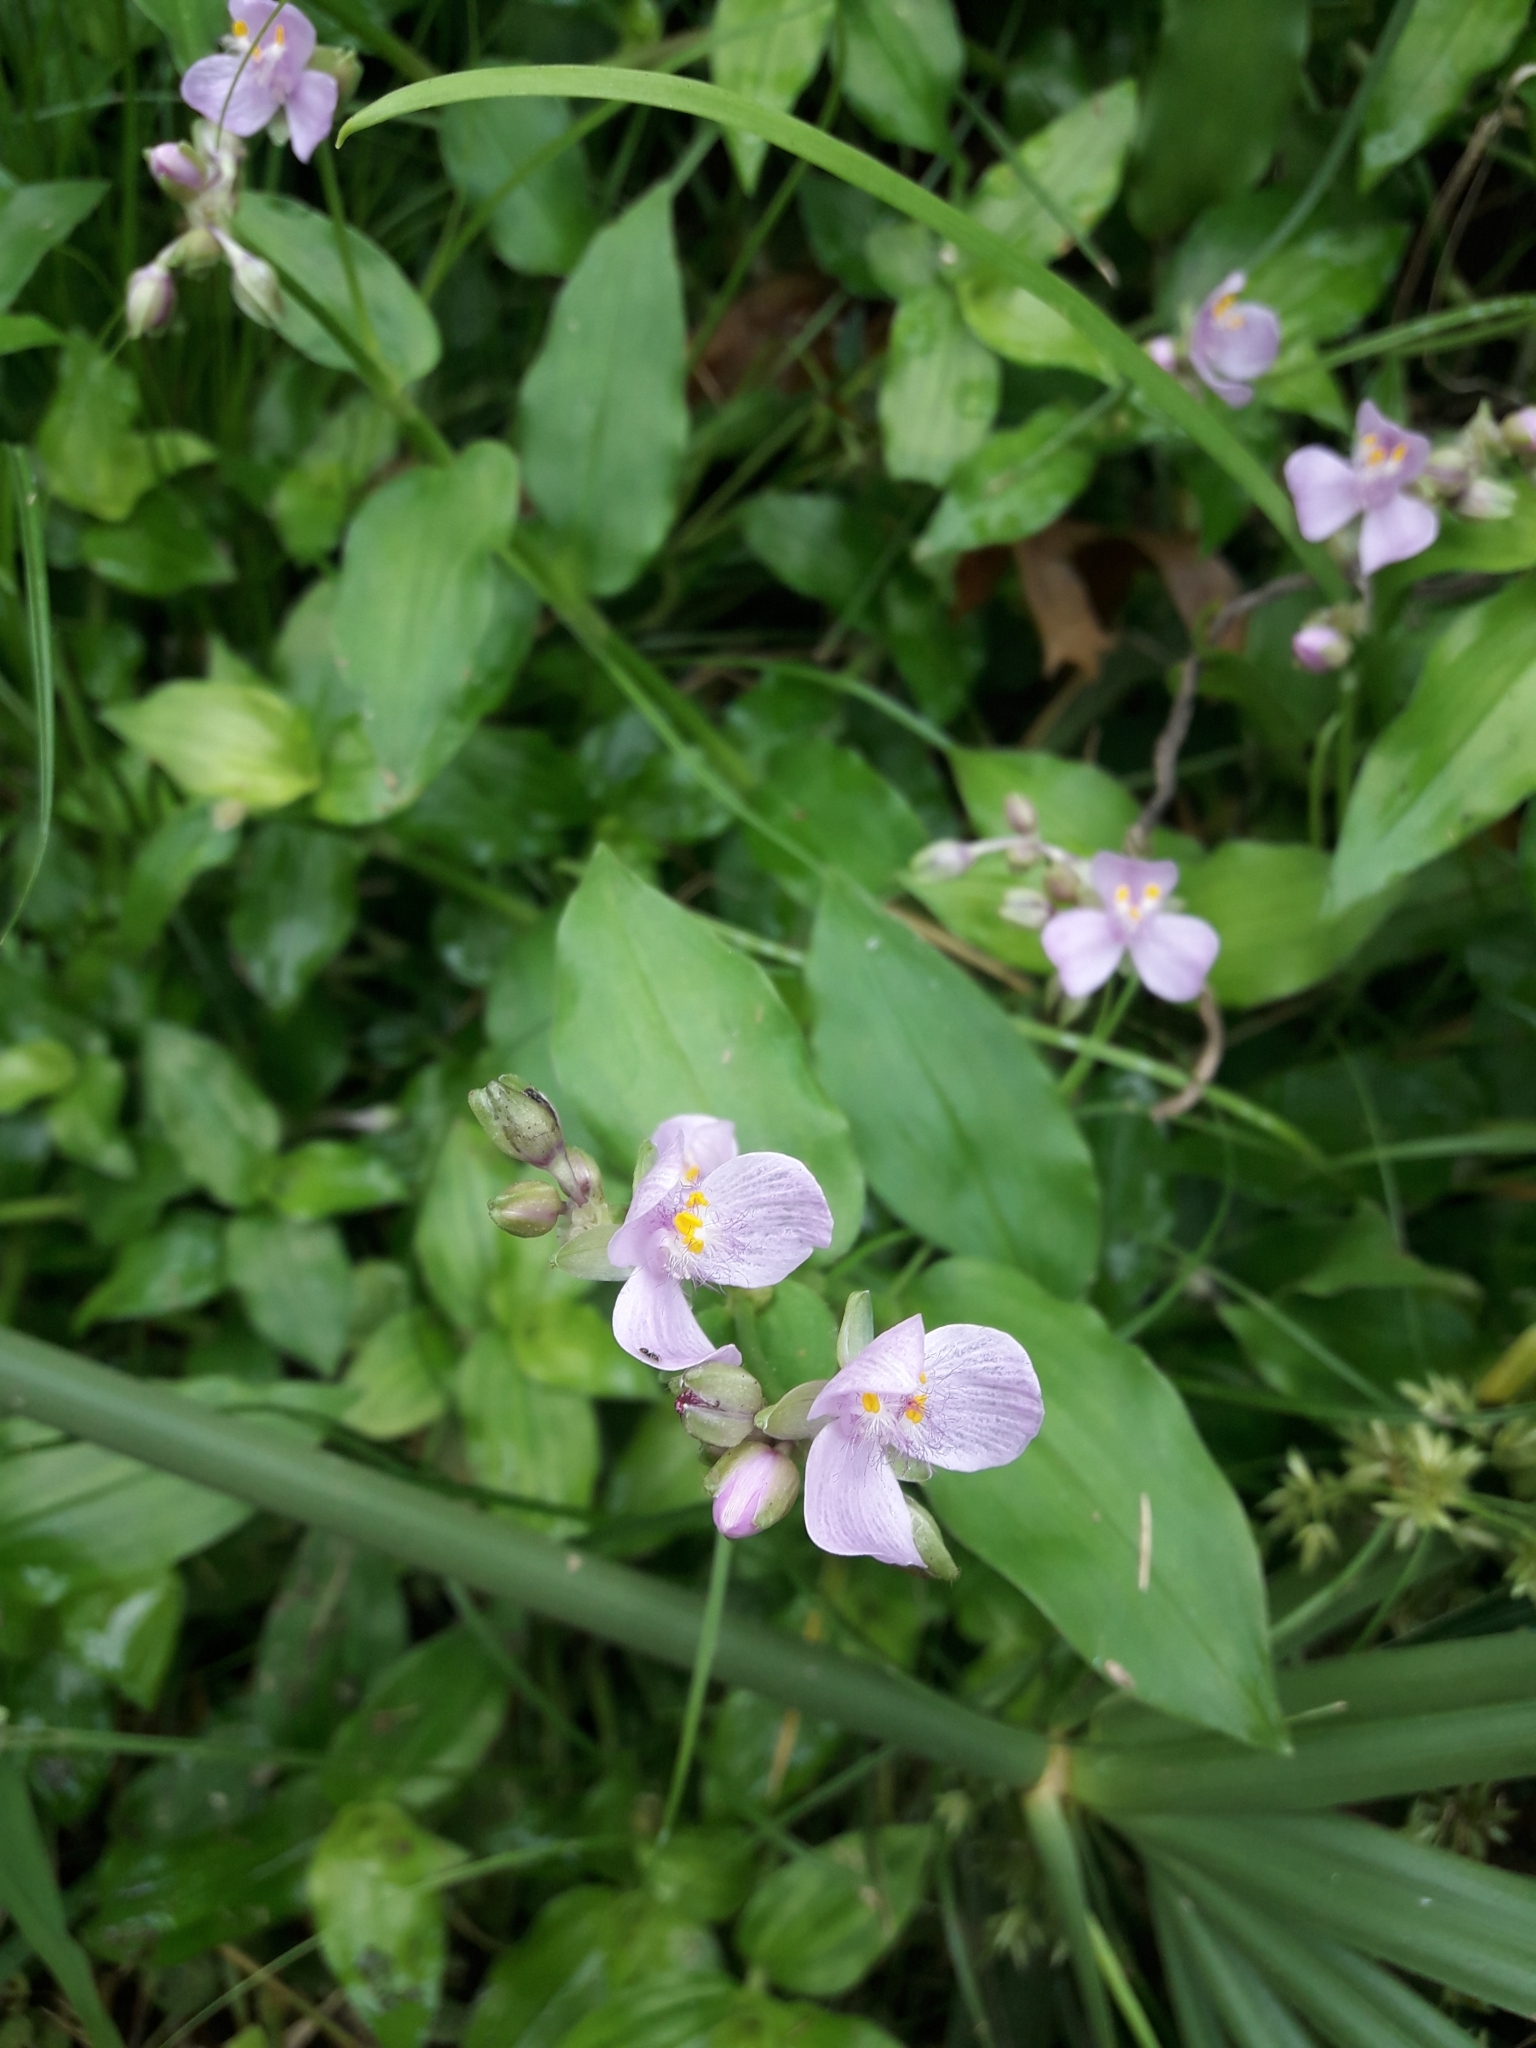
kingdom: Plantae
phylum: Tracheophyta
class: Liliopsida
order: Commelinales
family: Commelinaceae
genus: Callisia
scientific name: Callisia diuretica
